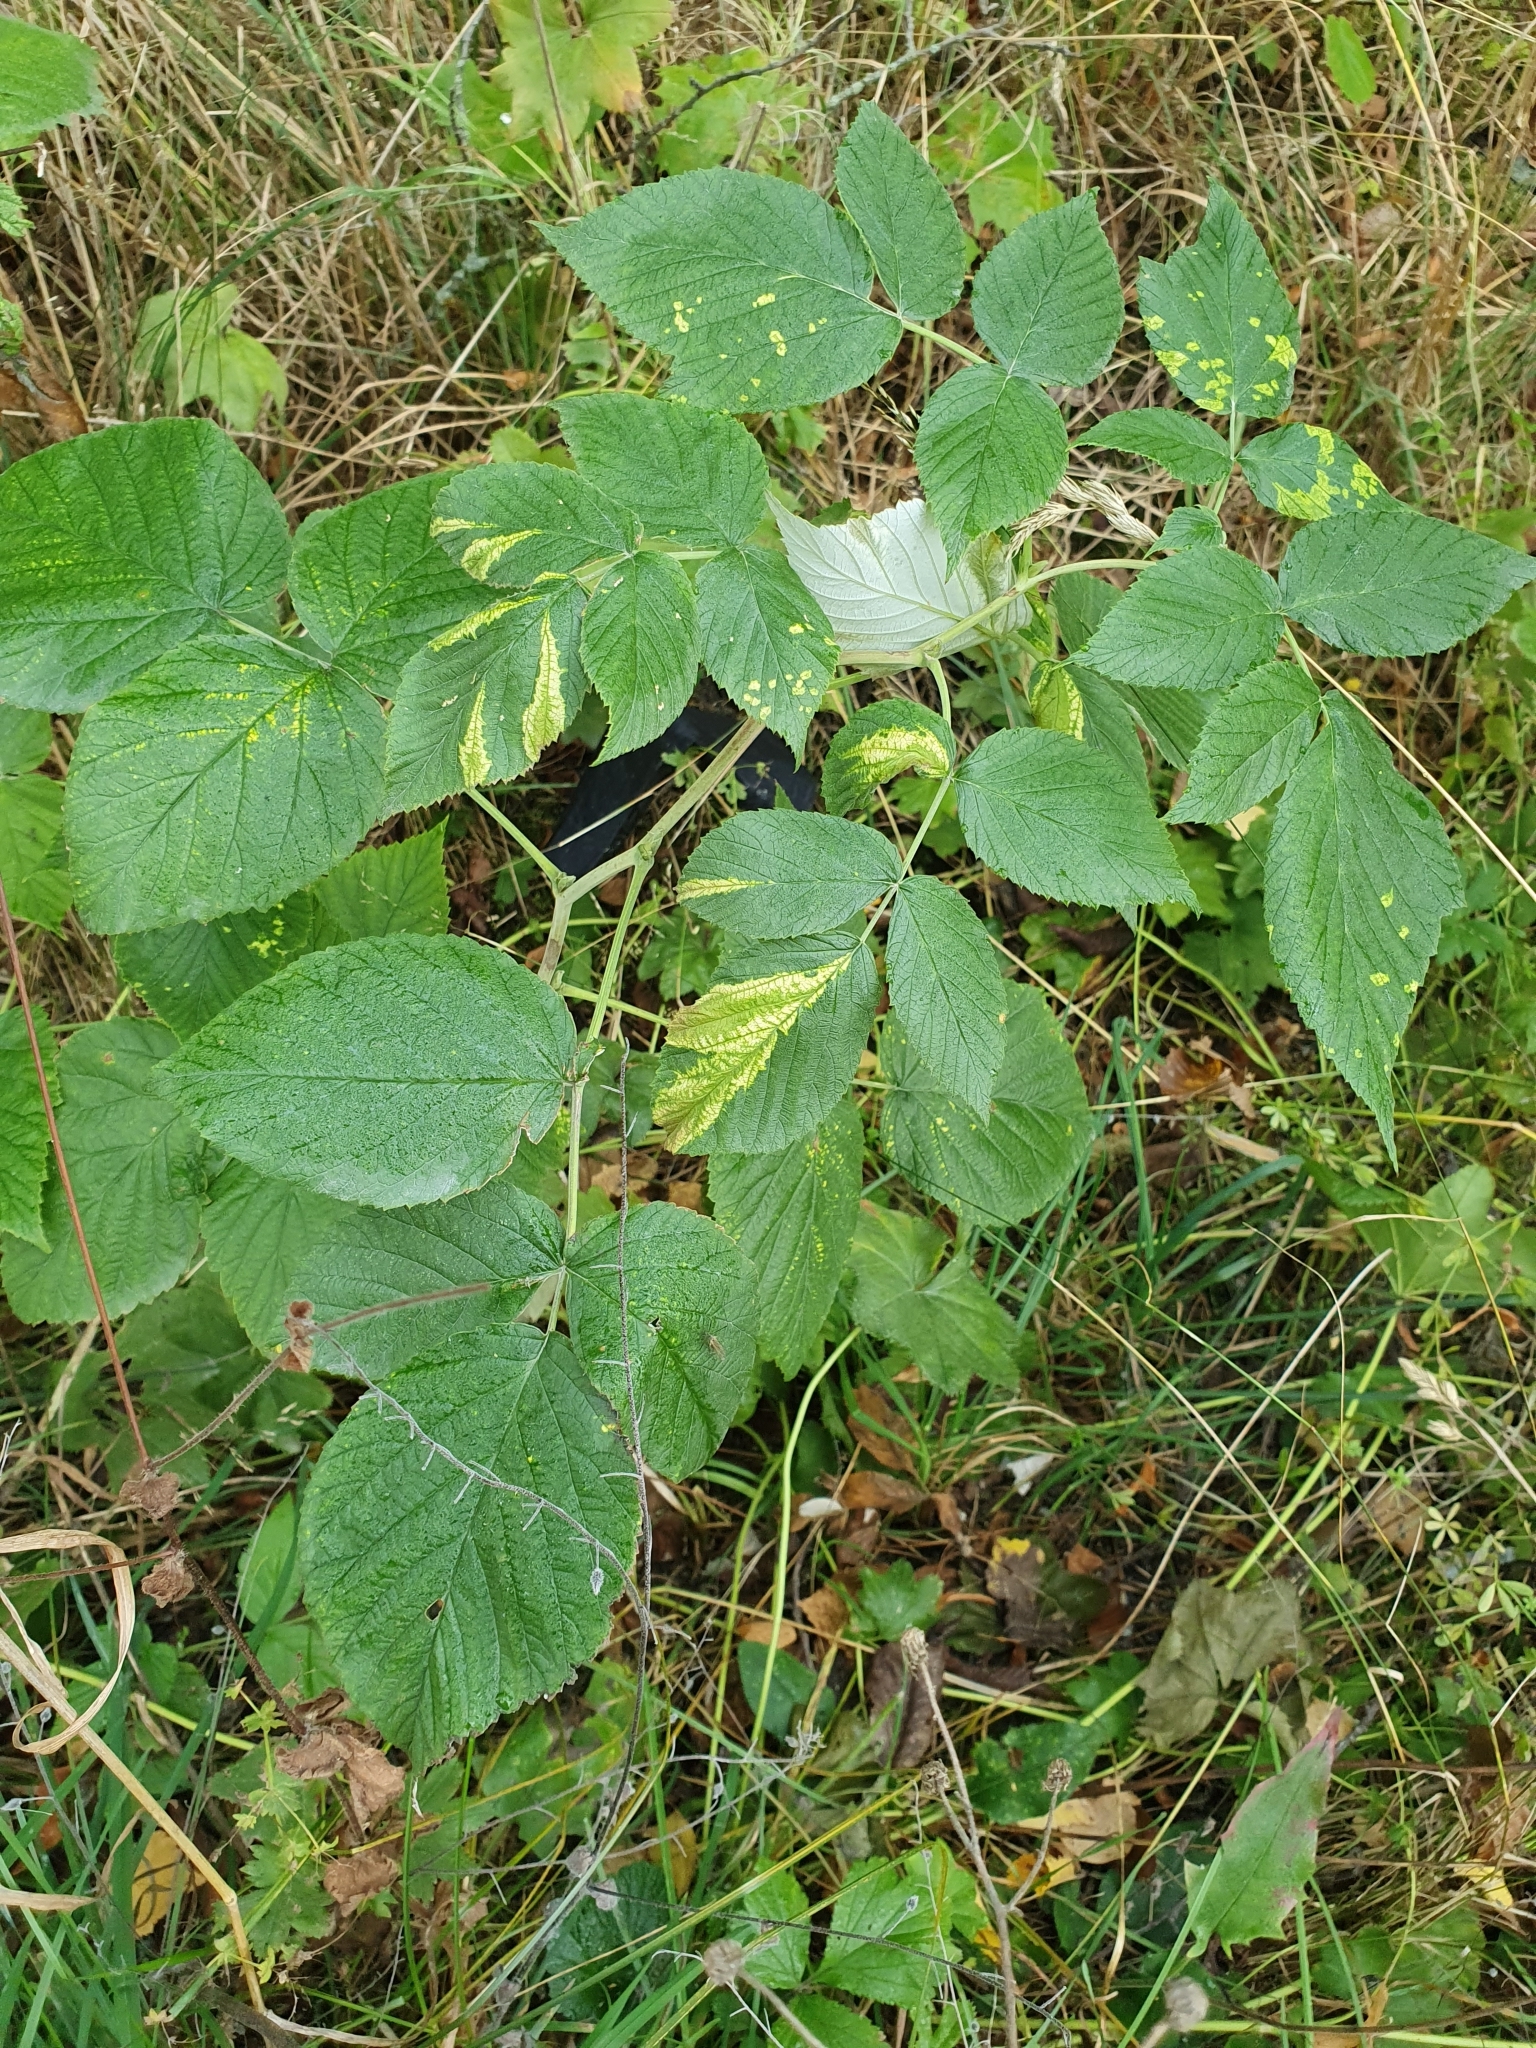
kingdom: Plantae
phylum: Tracheophyta
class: Magnoliopsida
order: Rosales
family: Rosaceae
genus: Rubus
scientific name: Rubus idaeus
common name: Raspberry
